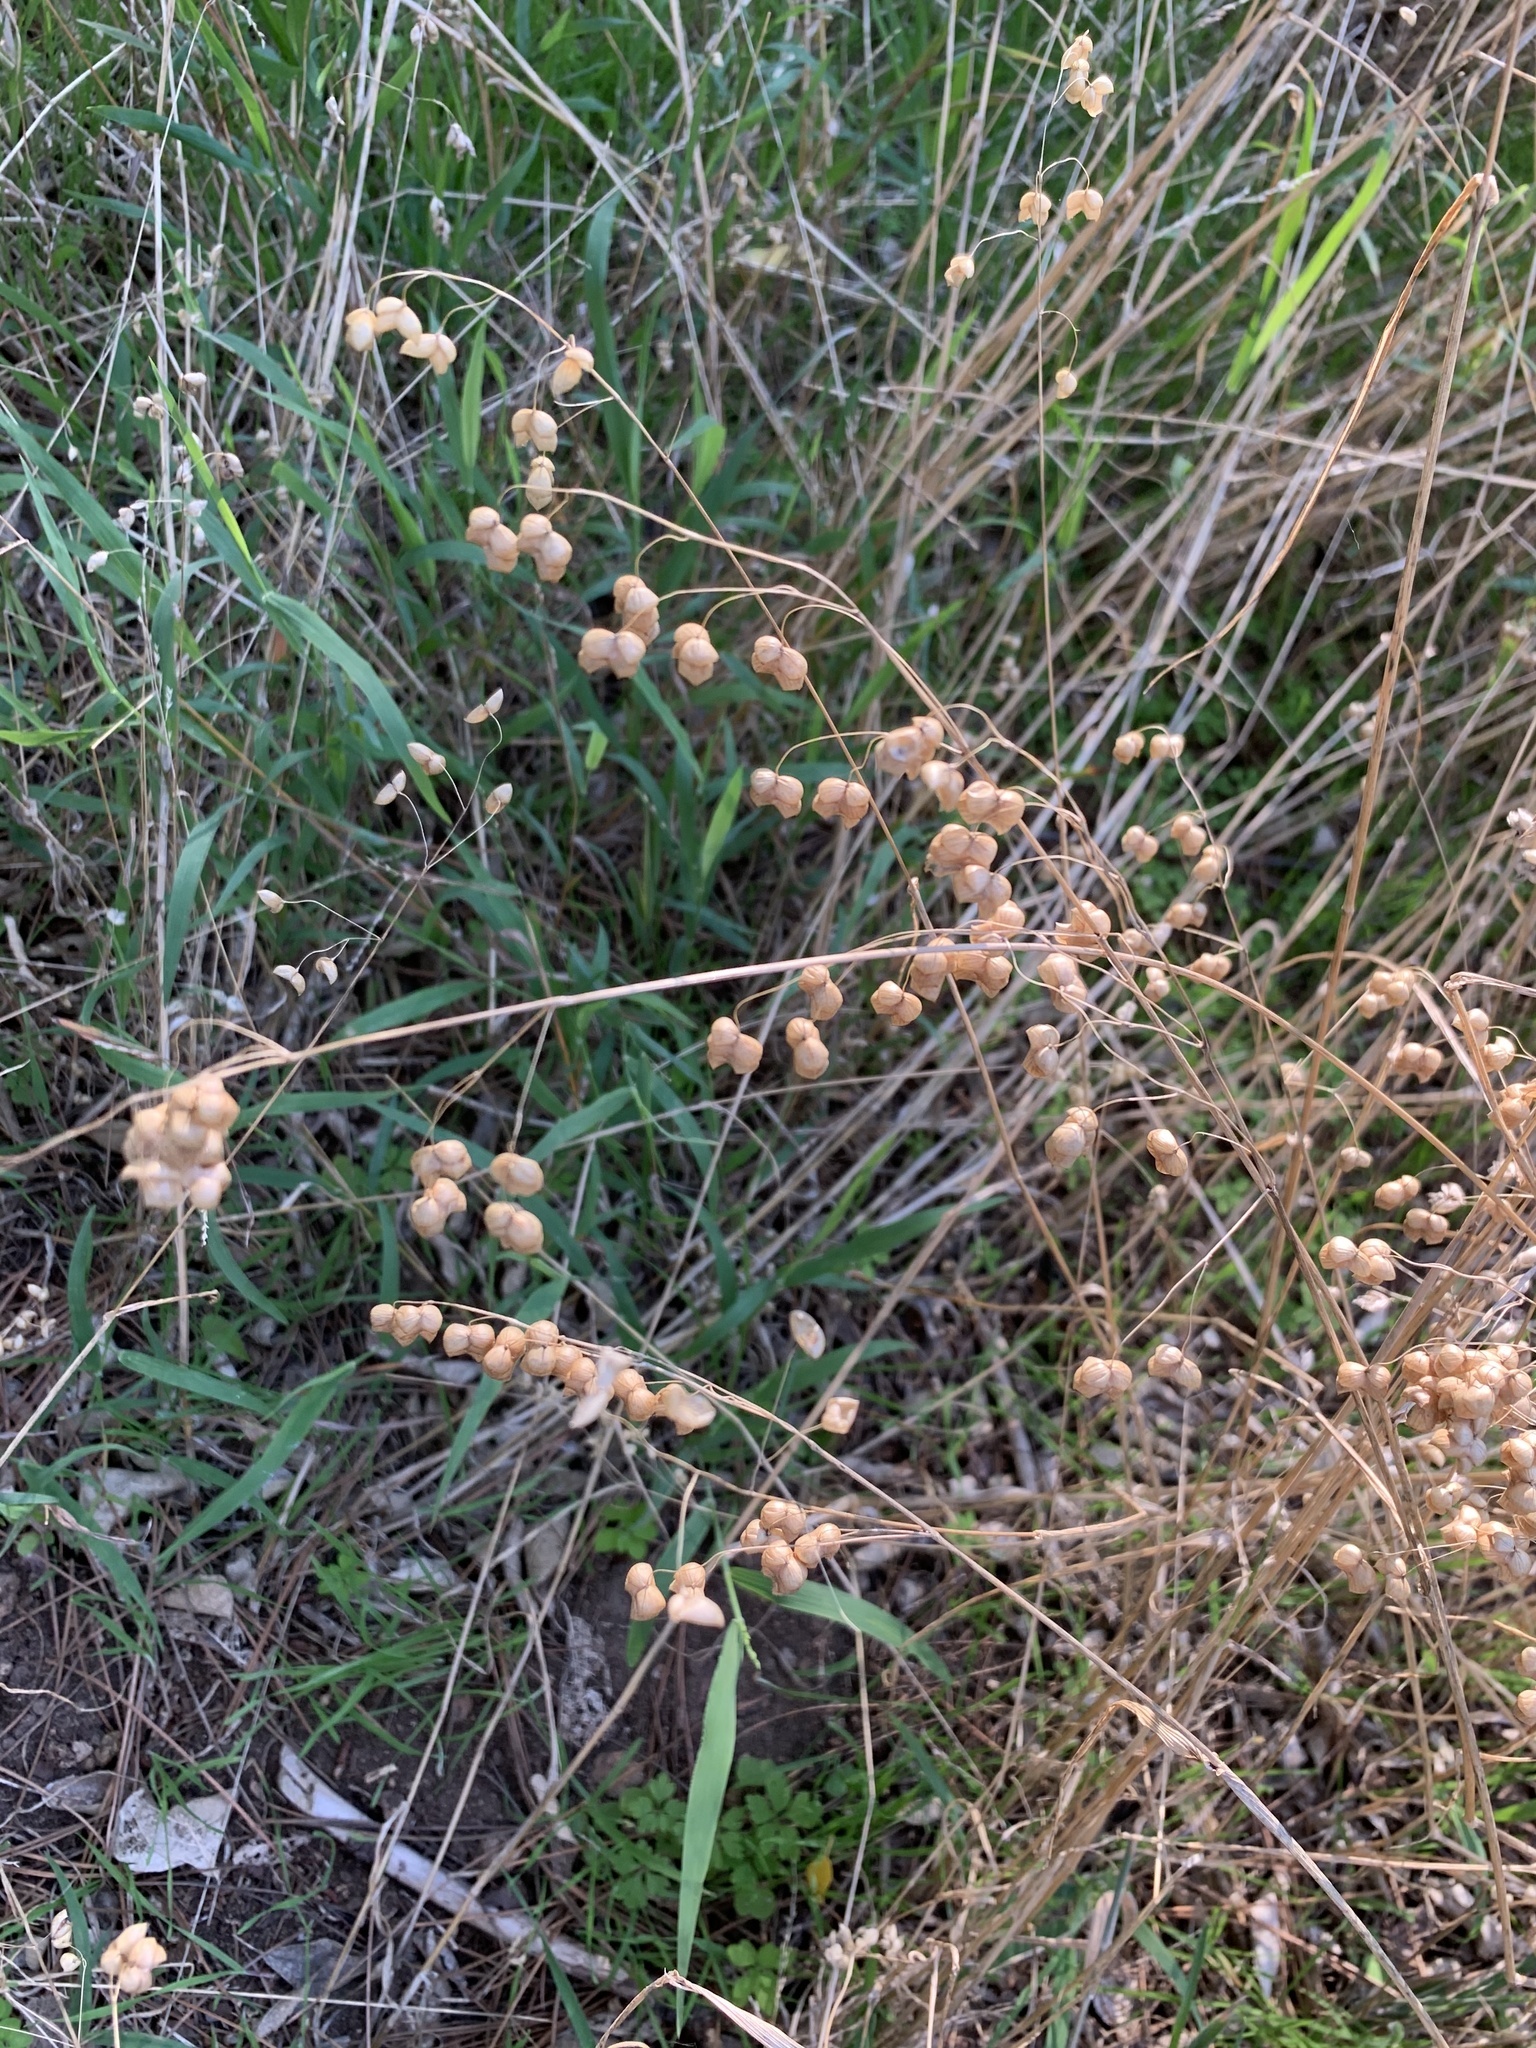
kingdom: Plantae
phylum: Tracheophyta
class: Liliopsida
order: Poales
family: Poaceae
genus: Briza
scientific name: Briza maxima
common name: Big quakinggrass
